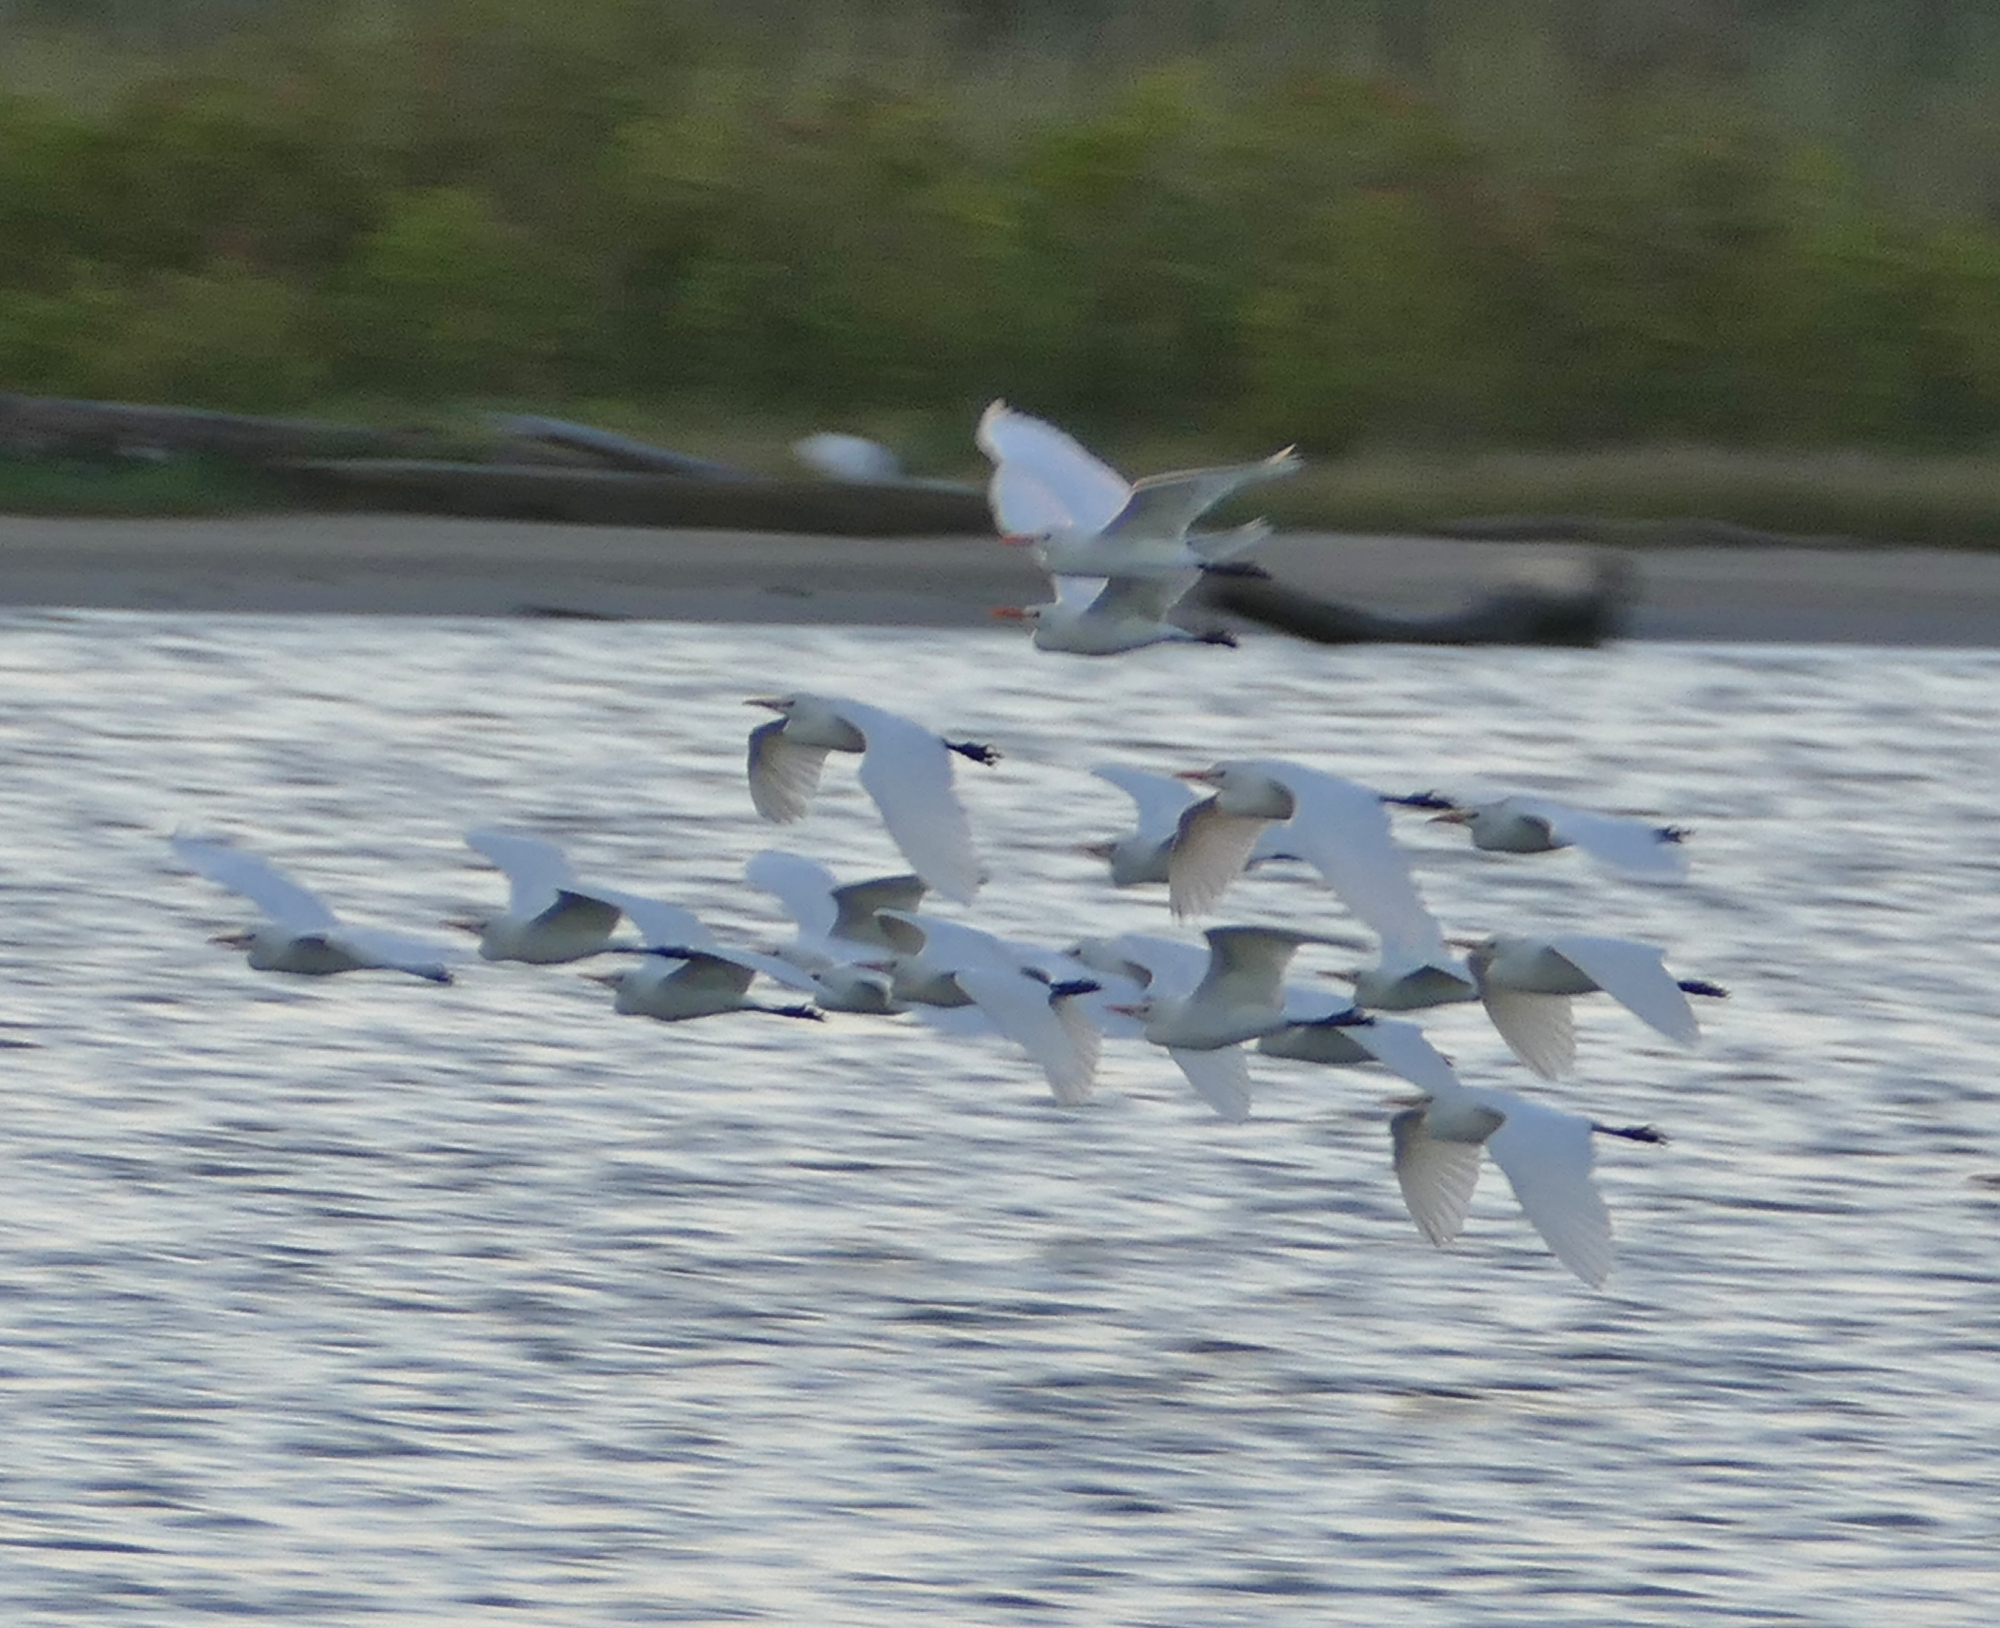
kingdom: Animalia
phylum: Chordata
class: Aves
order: Pelecaniformes
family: Ardeidae
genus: Bubulcus
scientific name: Bubulcus ibis
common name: Cattle egret
